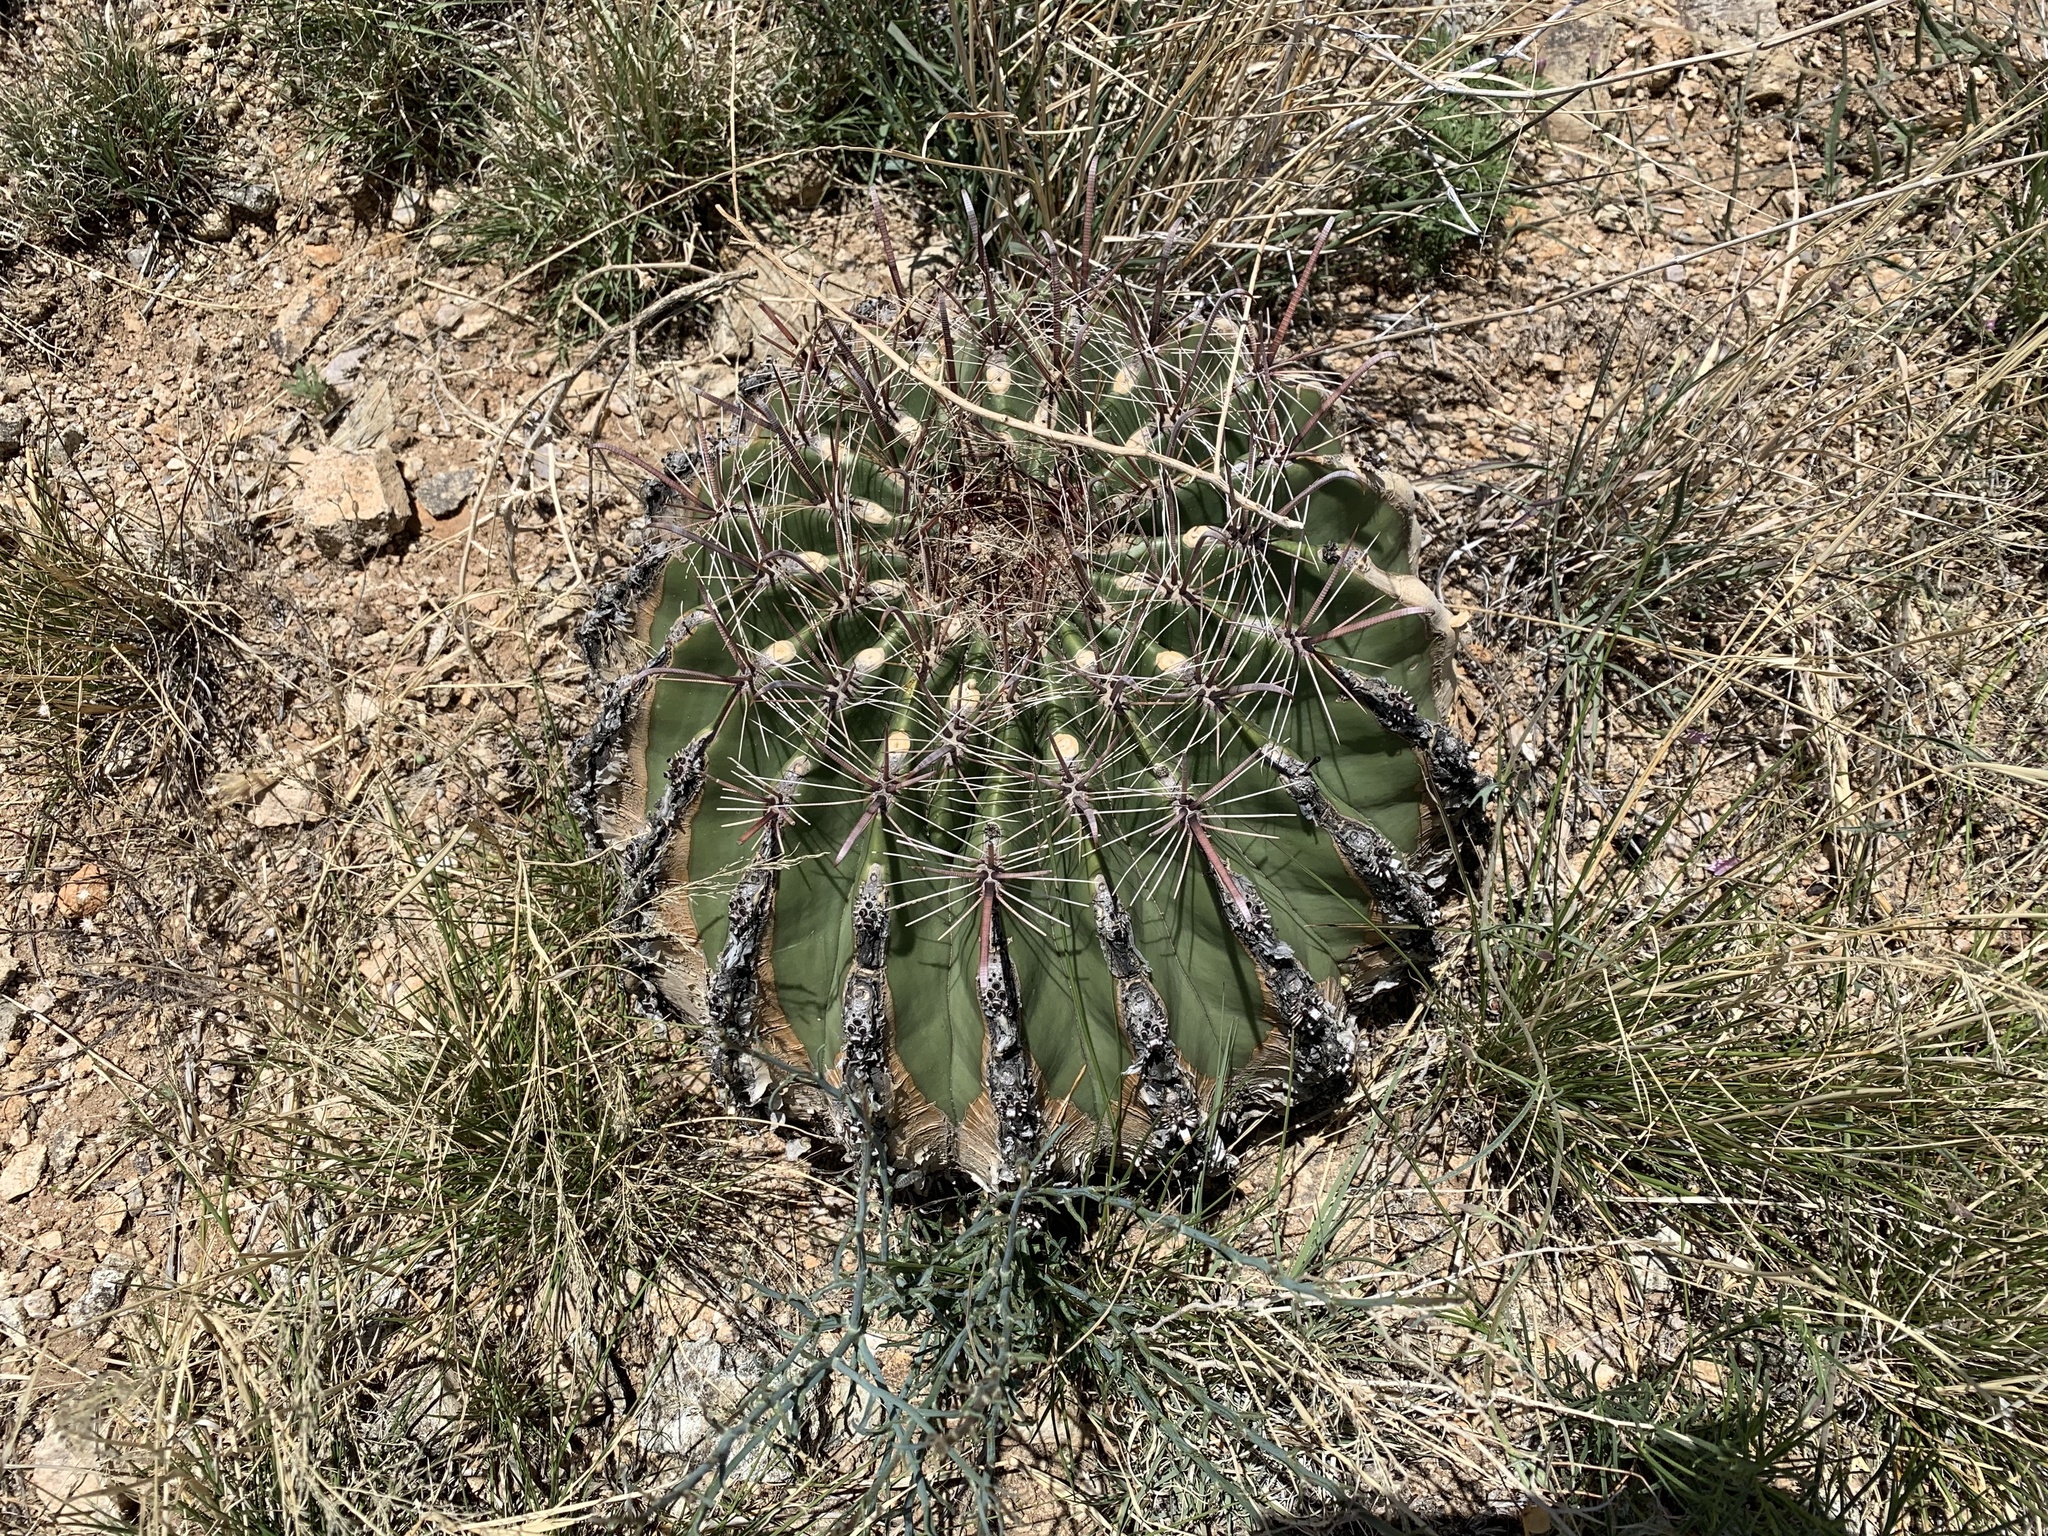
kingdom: Plantae
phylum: Tracheophyta
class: Magnoliopsida
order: Caryophyllales
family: Cactaceae
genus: Ferocactus
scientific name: Ferocactus wislizeni
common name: Candy barrel cactus
